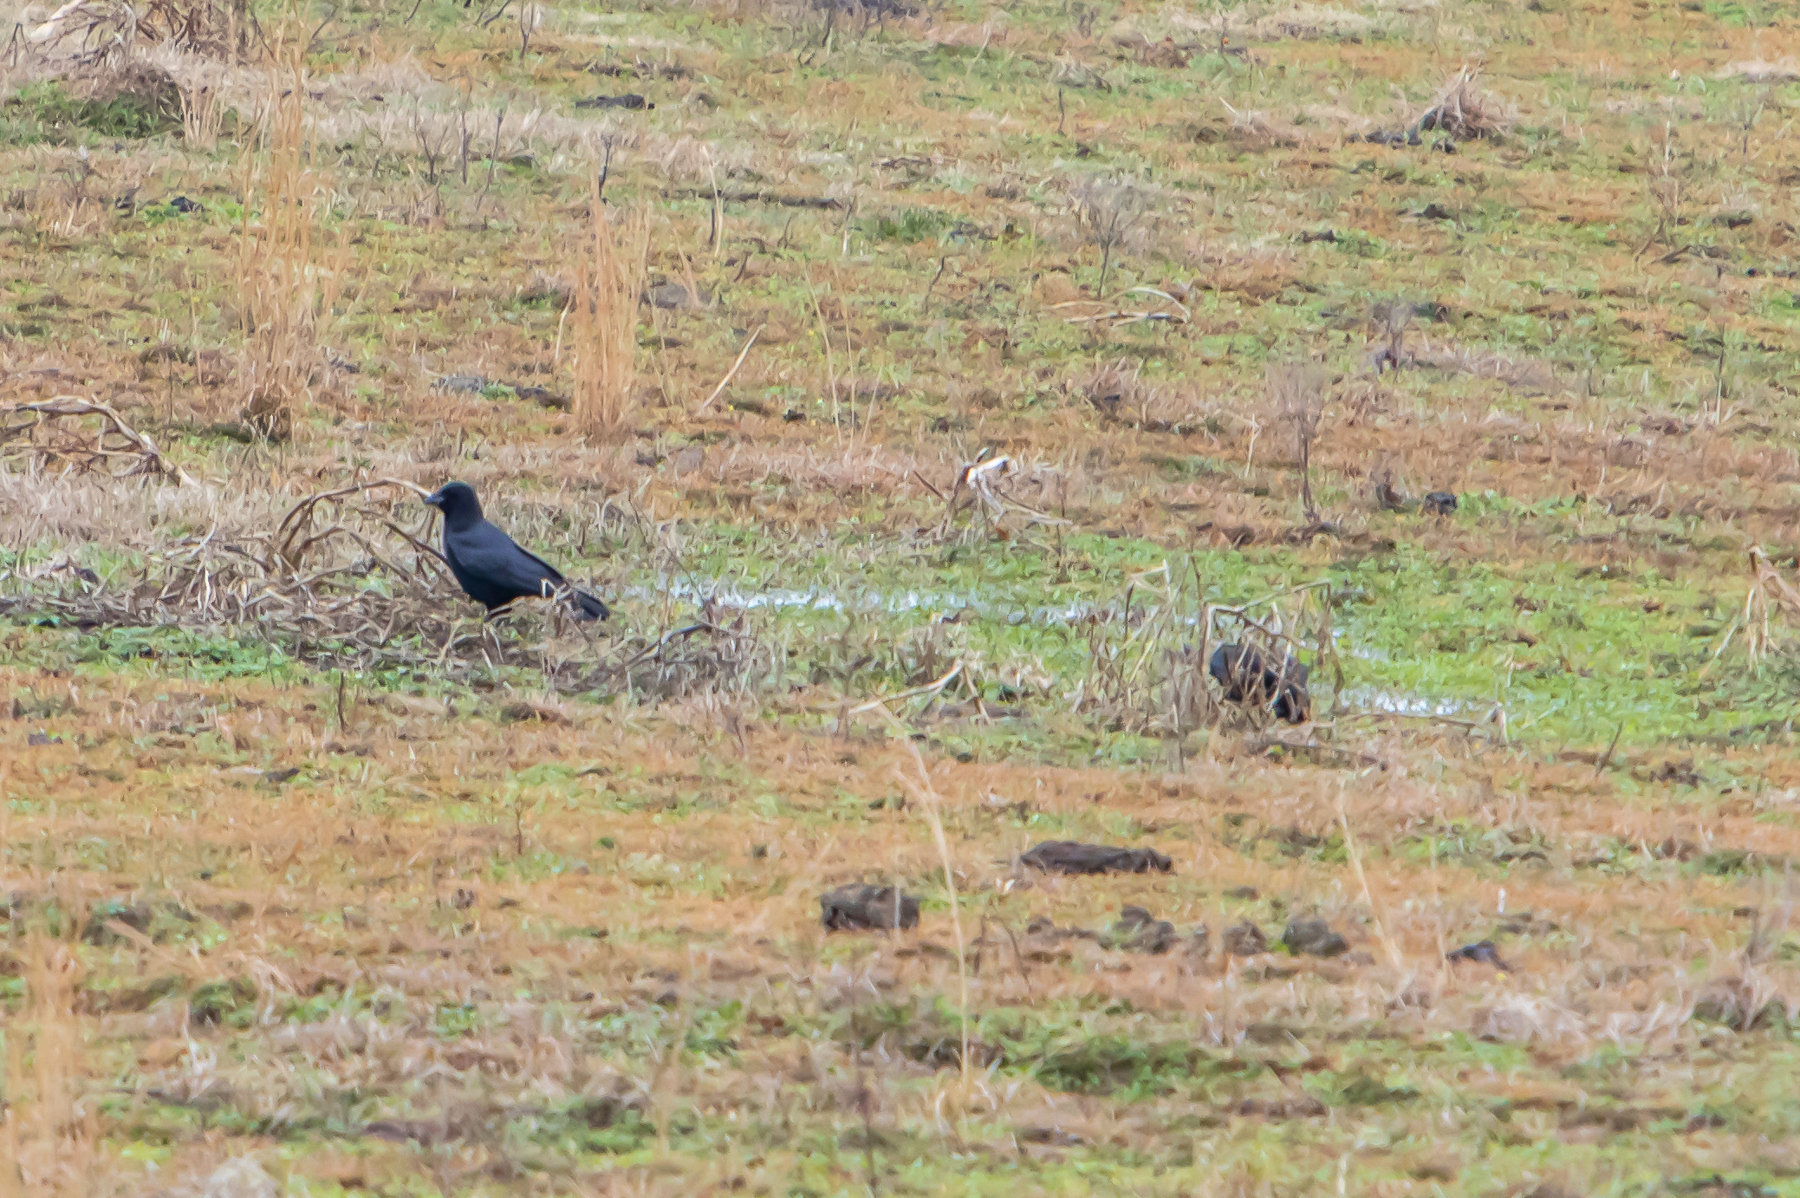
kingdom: Animalia
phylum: Chordata
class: Aves
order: Passeriformes
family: Corvidae
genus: Corvus
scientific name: Corvus brachyrhynchos
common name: American crow
